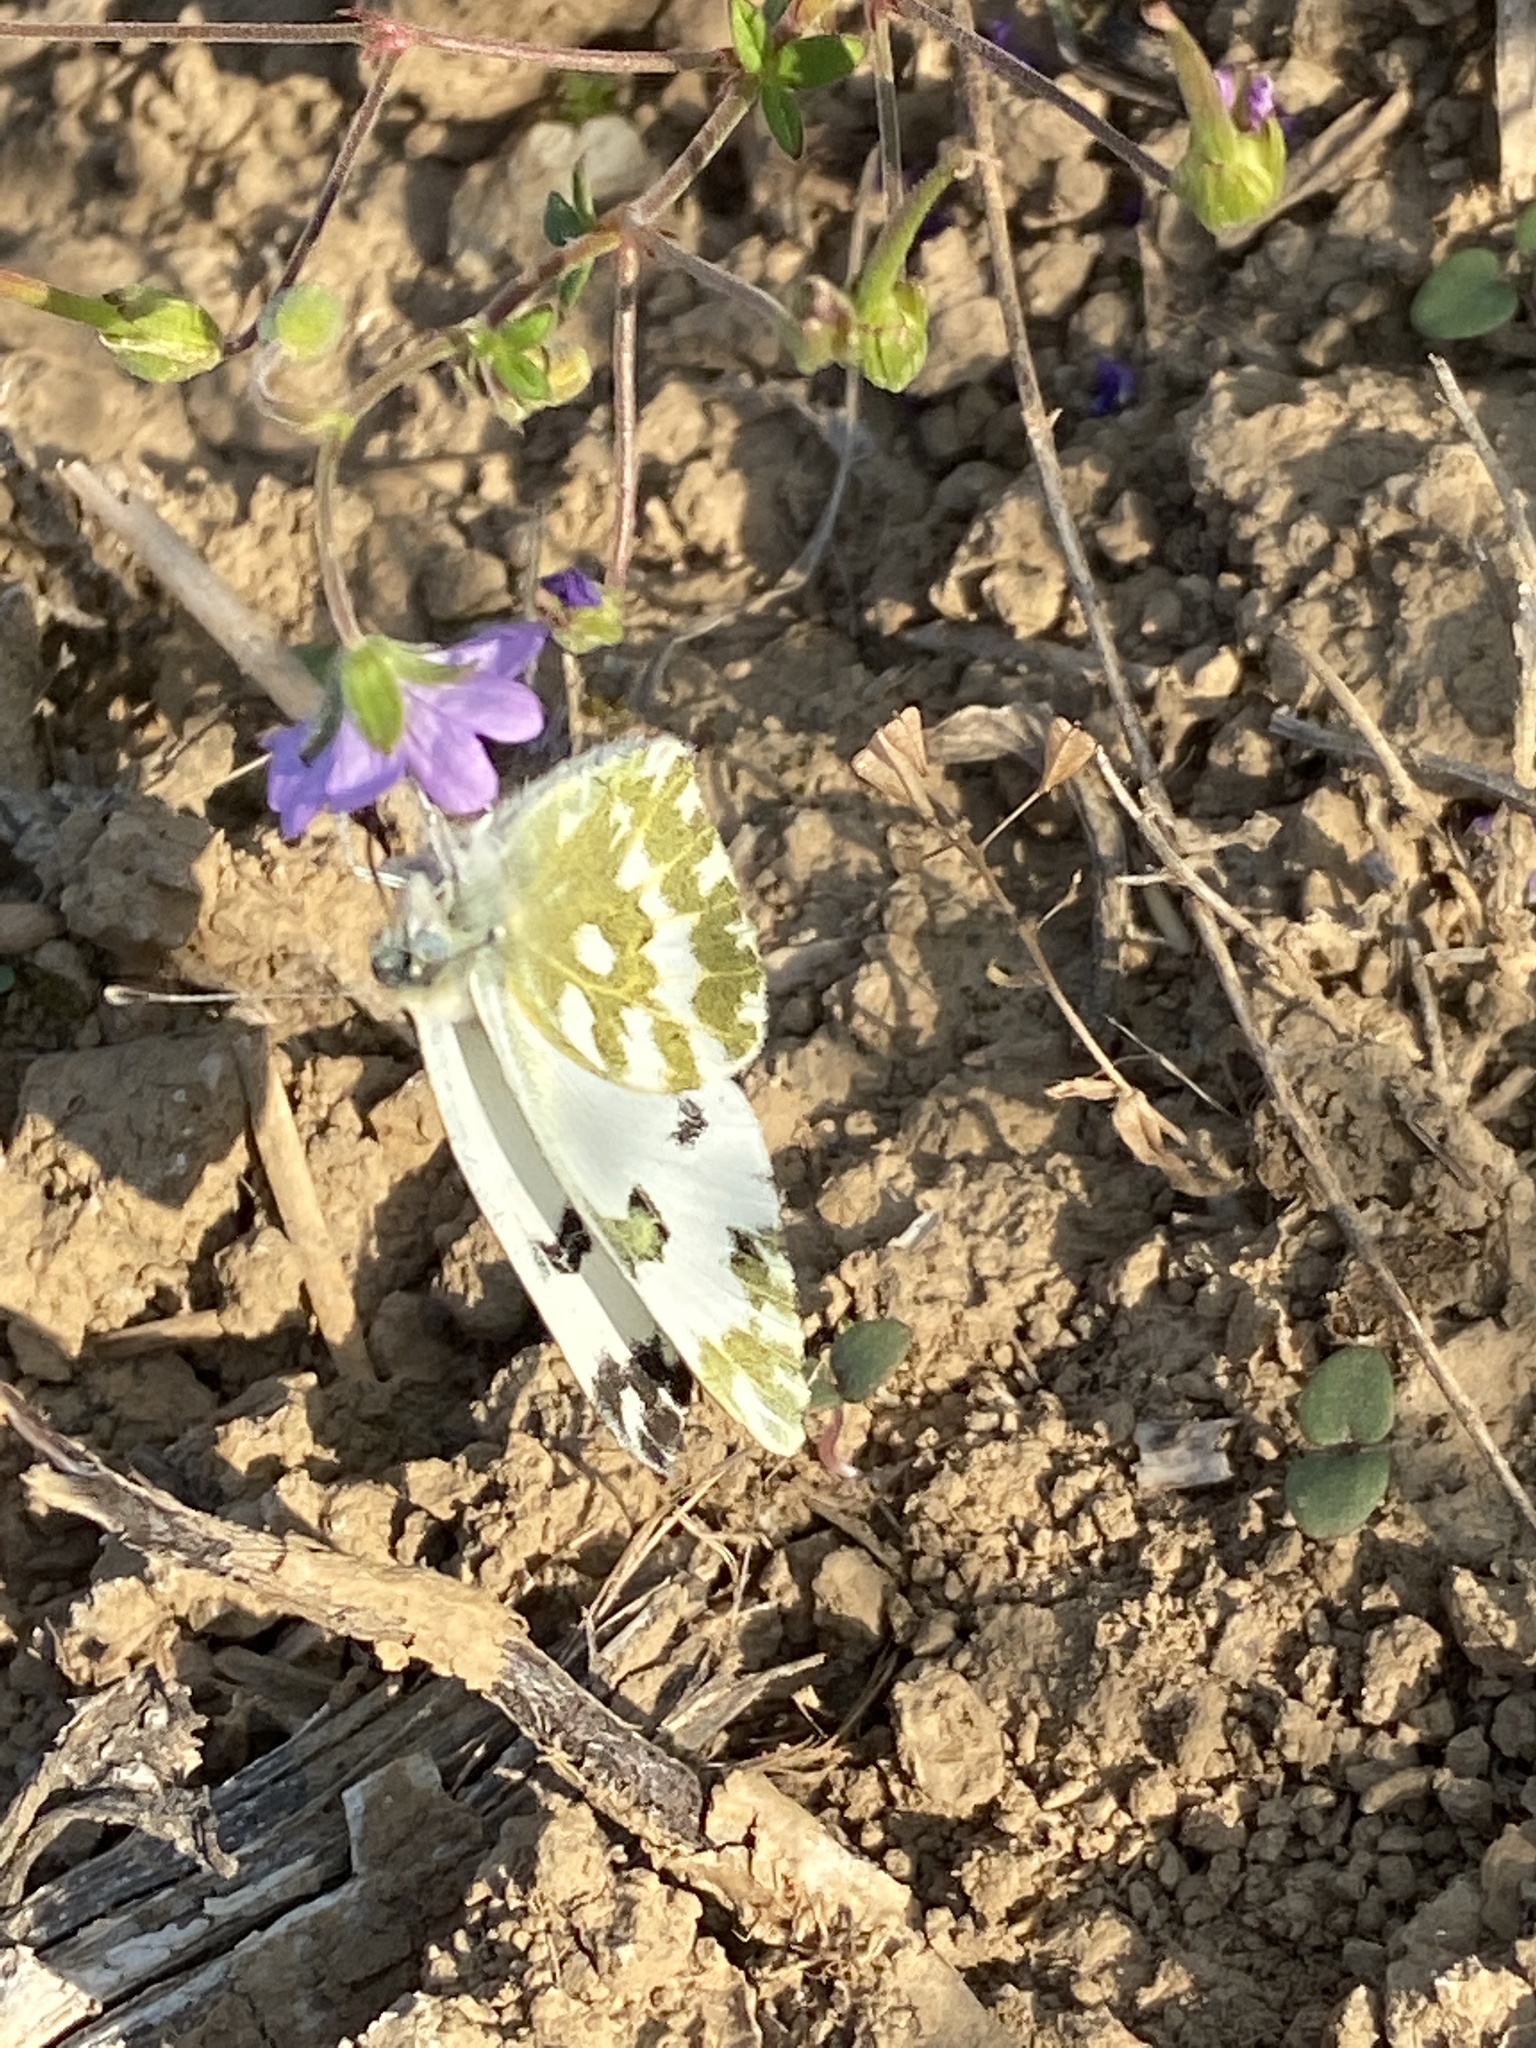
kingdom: Animalia
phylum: Arthropoda
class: Insecta
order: Lepidoptera
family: Pieridae
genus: Pontia
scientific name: Pontia edusa
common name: Eastern bath white
